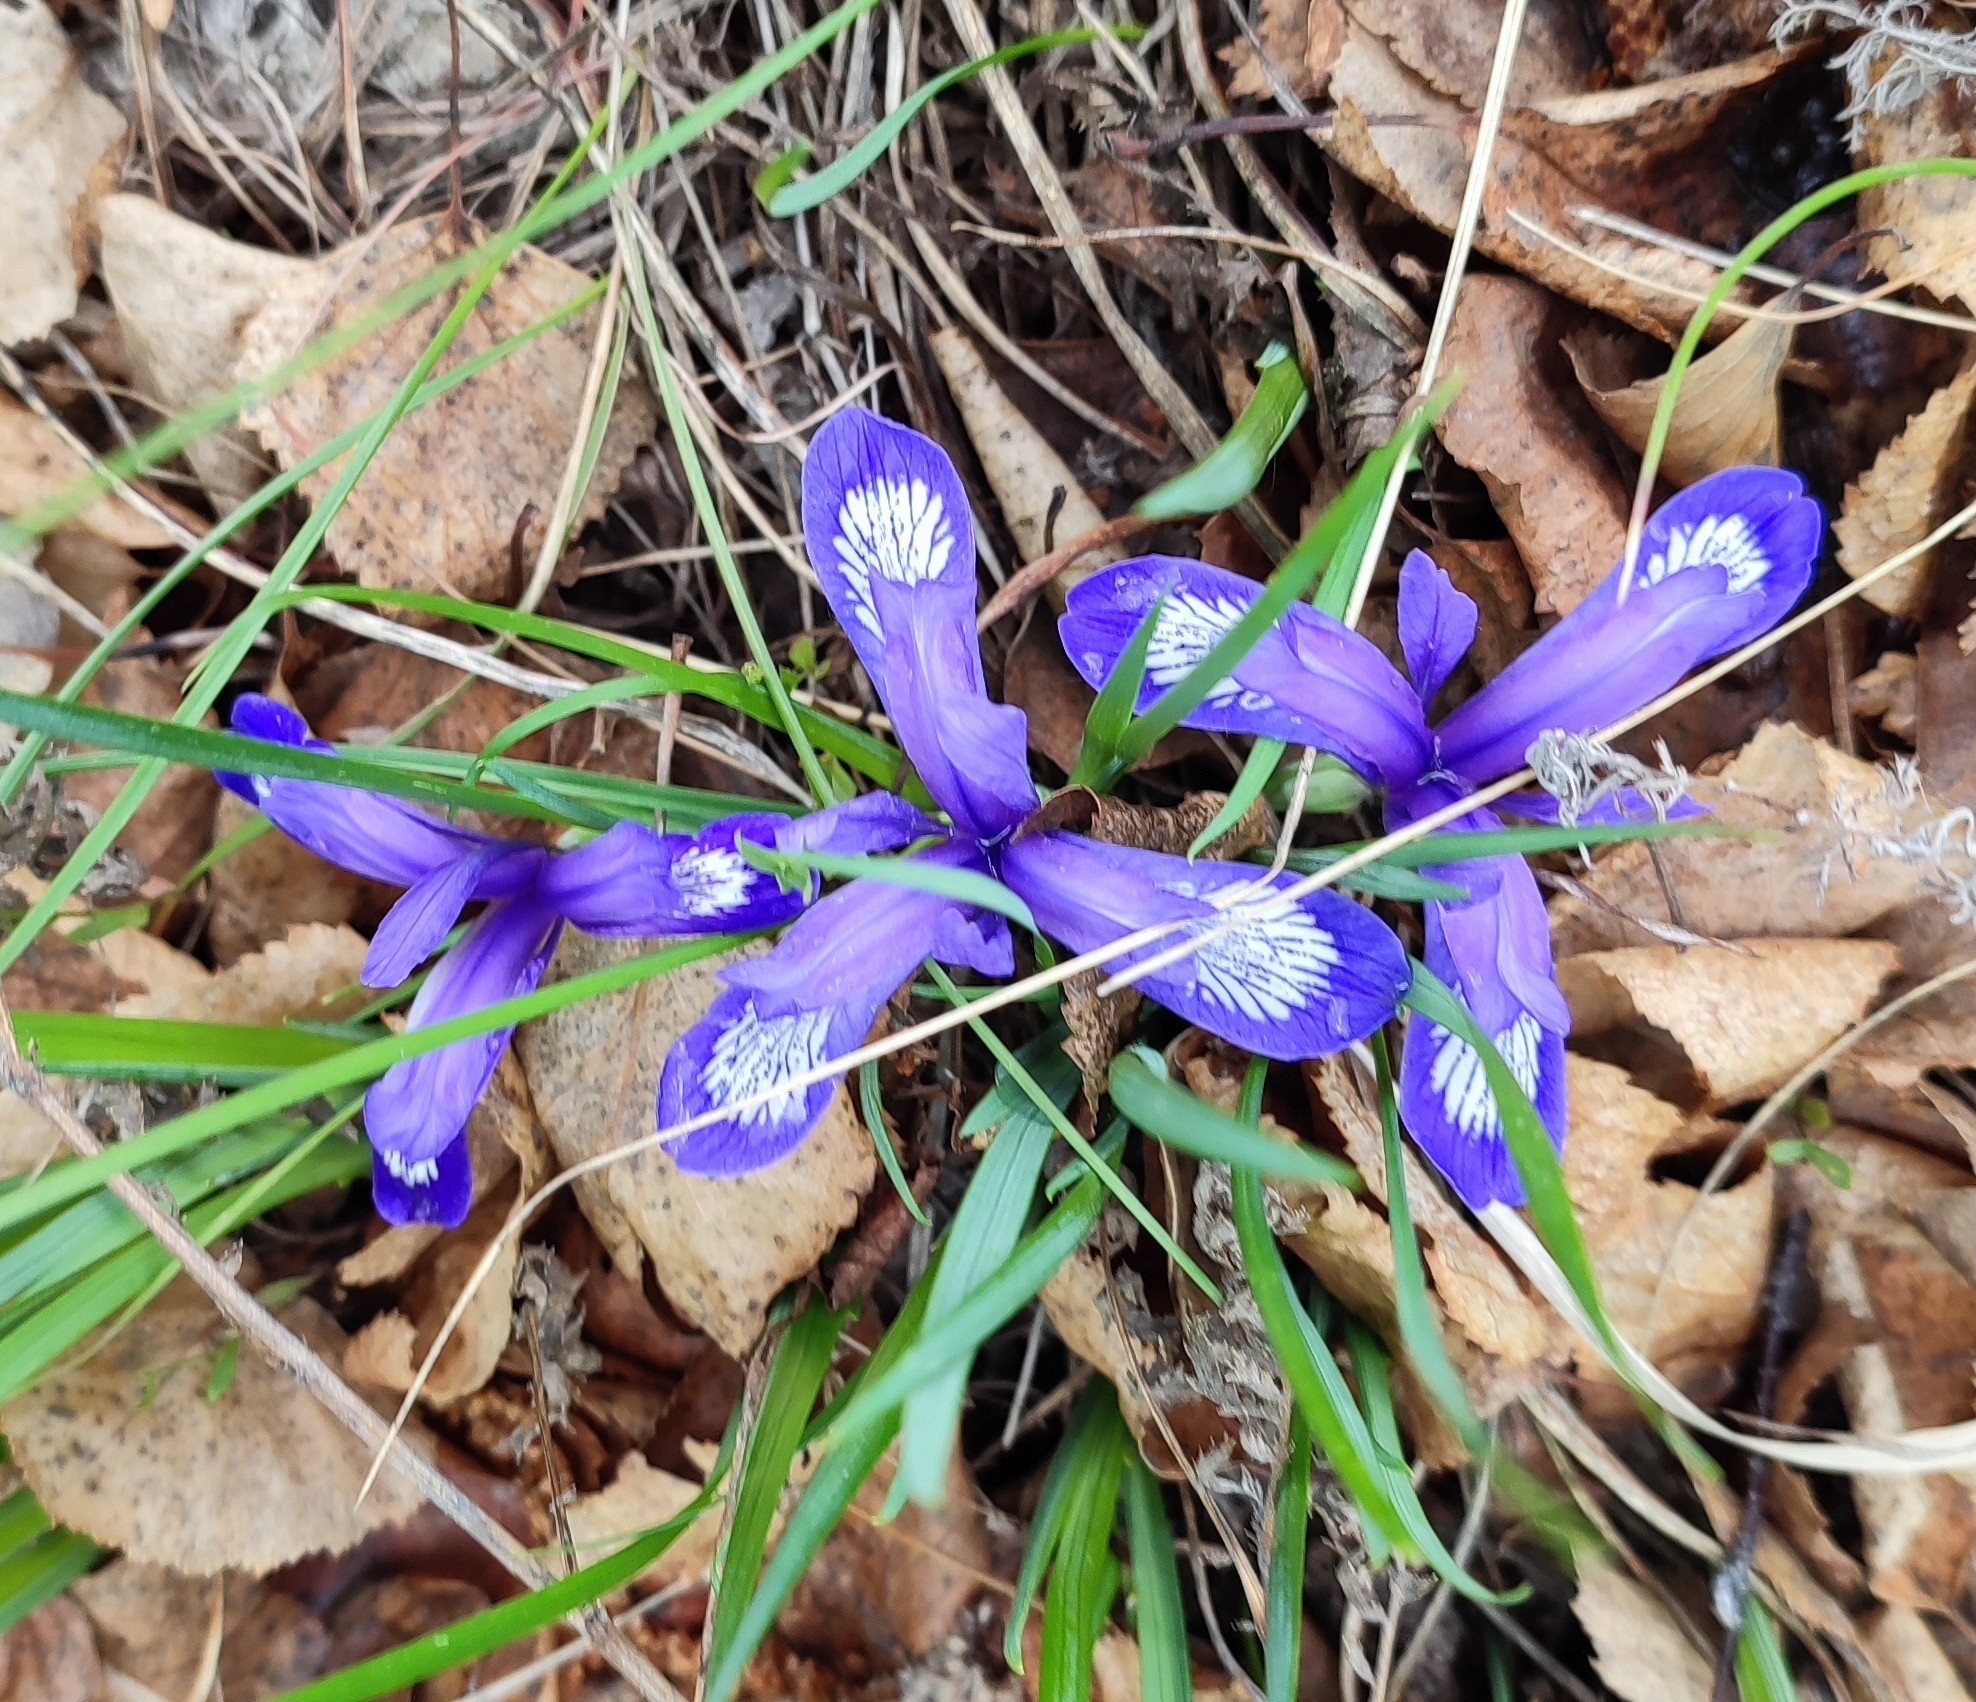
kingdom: Plantae
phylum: Tracheophyta
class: Liliopsida
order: Asparagales
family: Iridaceae
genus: Iris
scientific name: Iris ruthenica
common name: Purple-bract iris
